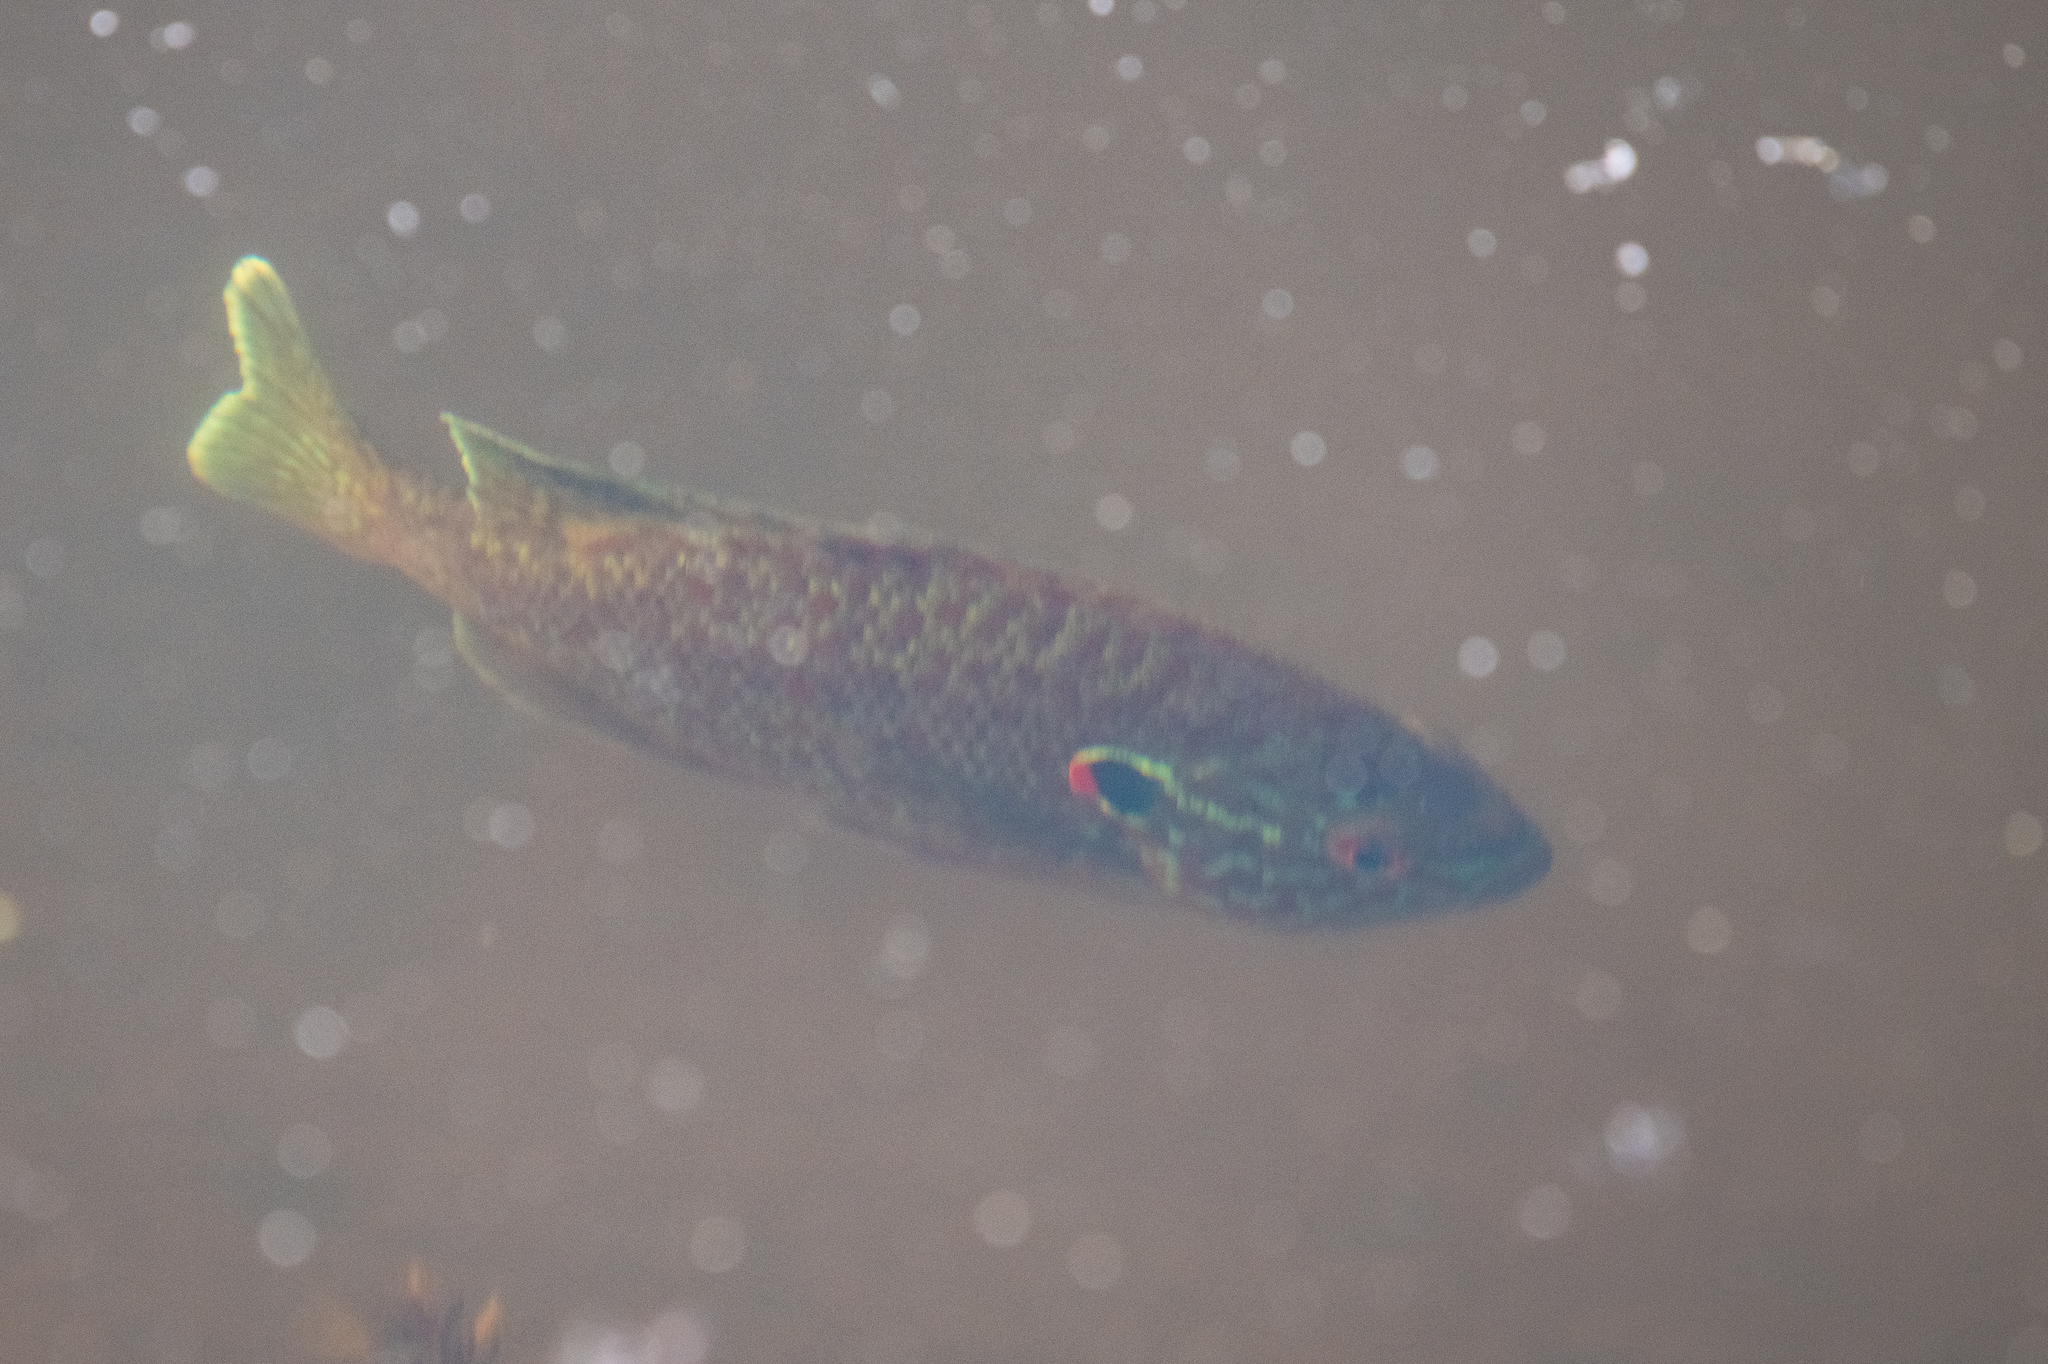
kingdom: Animalia
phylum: Chordata
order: Perciformes
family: Centrarchidae
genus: Lepomis
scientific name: Lepomis gibbosus
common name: Pumpkinseed
